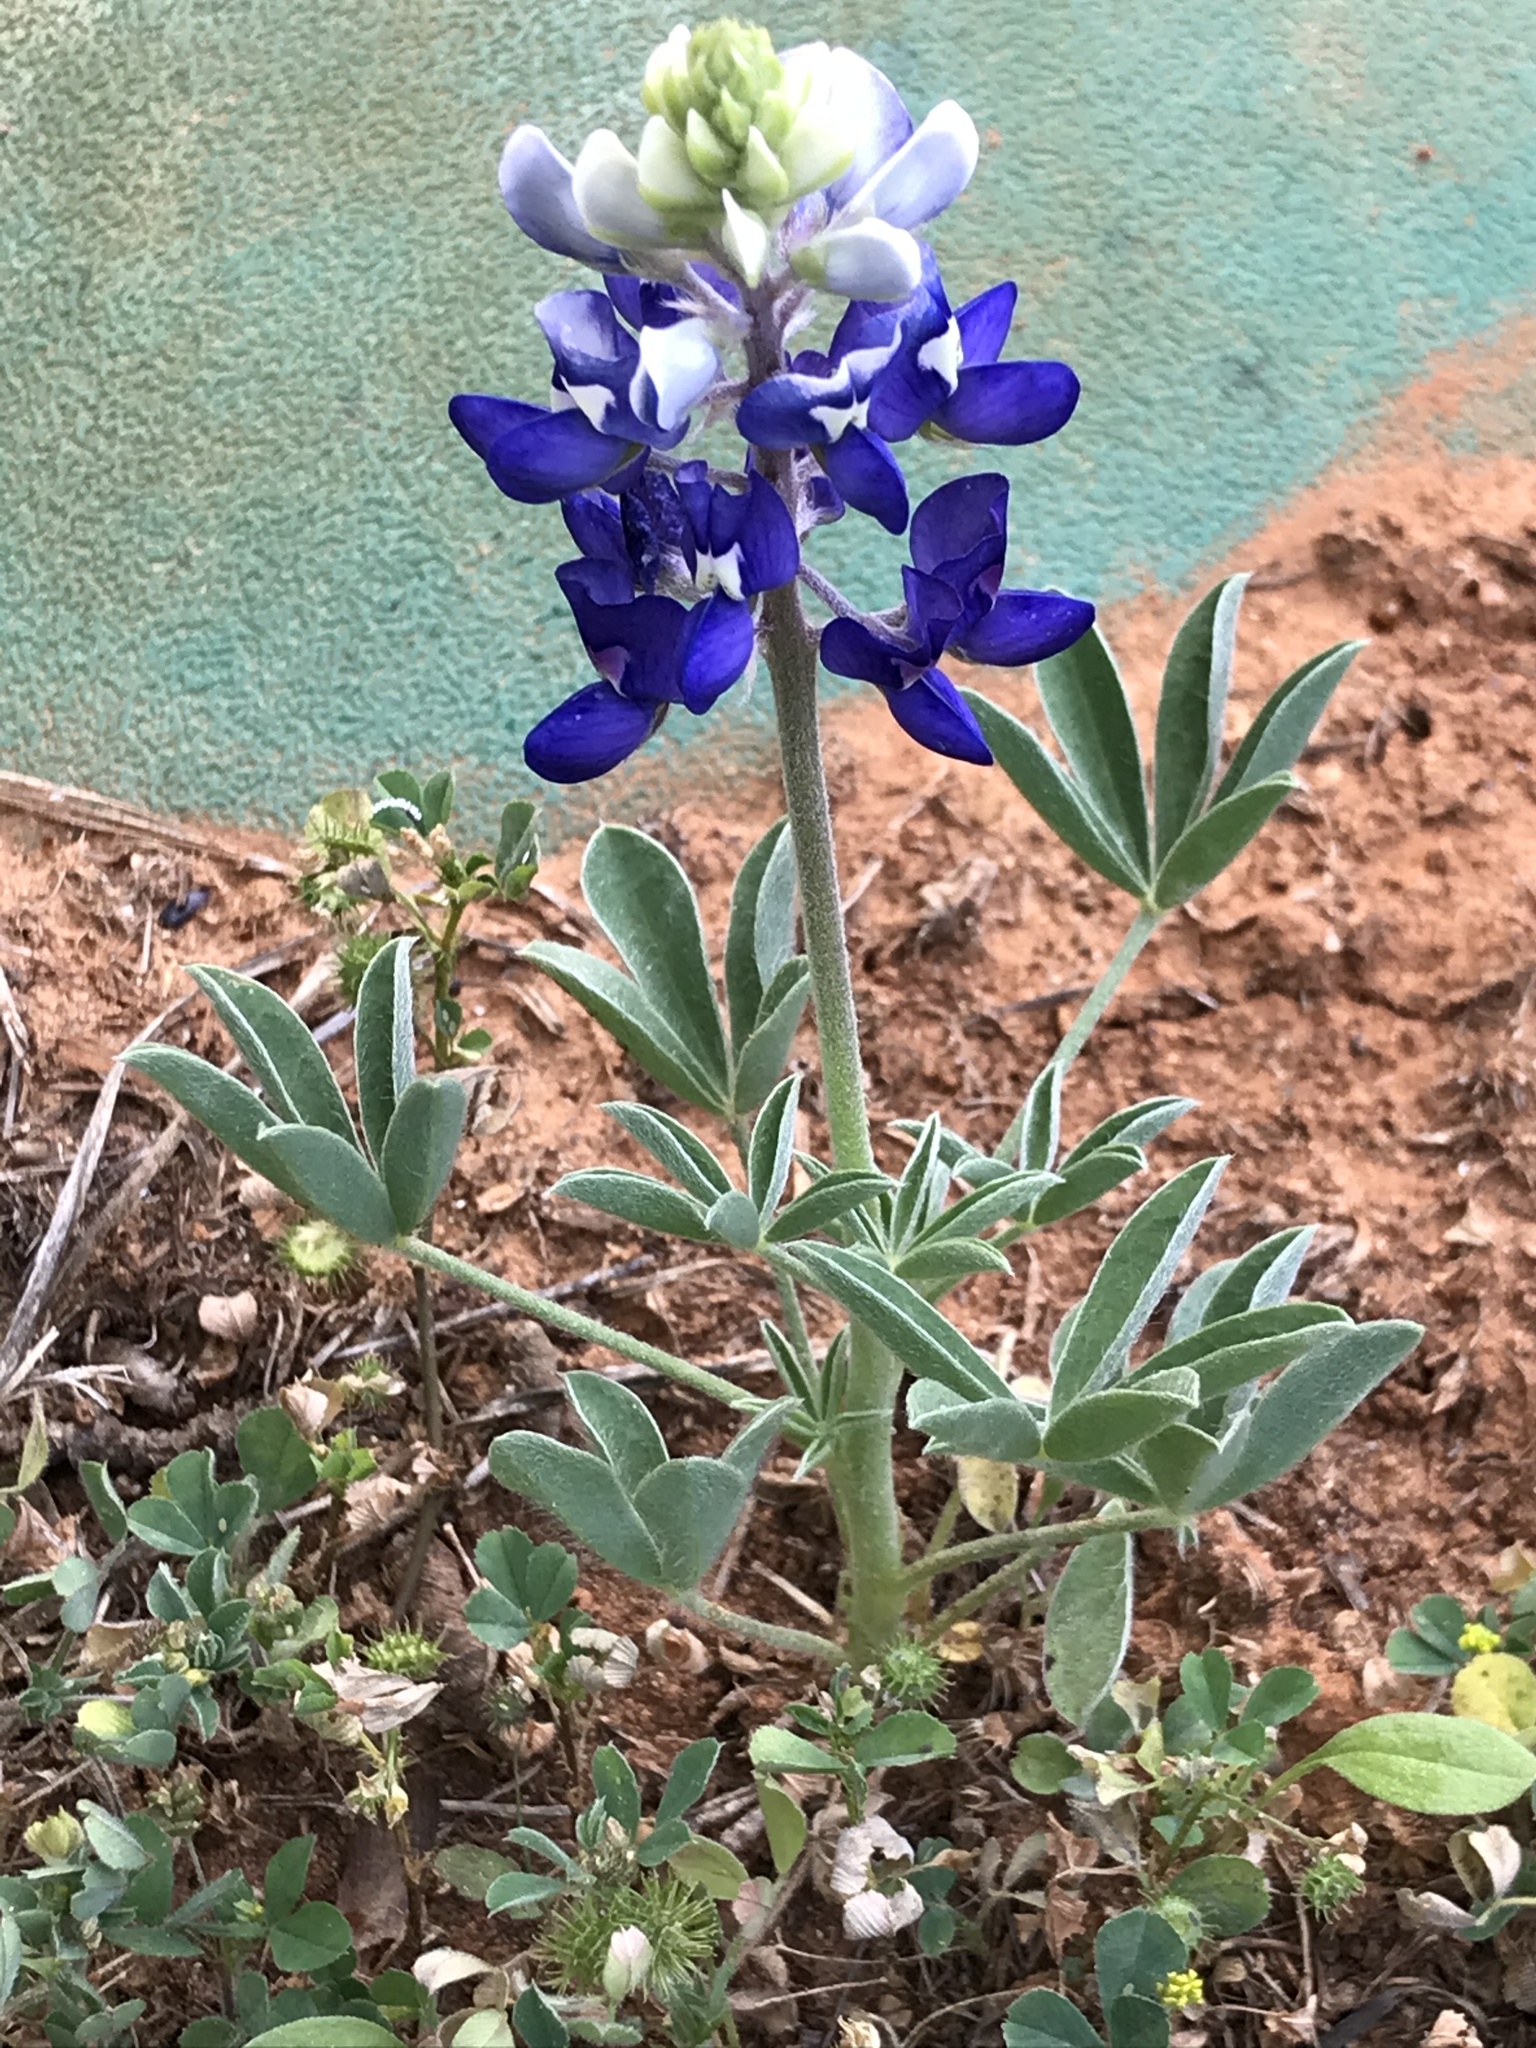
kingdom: Plantae
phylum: Tracheophyta
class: Magnoliopsida
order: Fabales
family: Fabaceae
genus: Lupinus
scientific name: Lupinus texensis
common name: Texas bluebonnet
